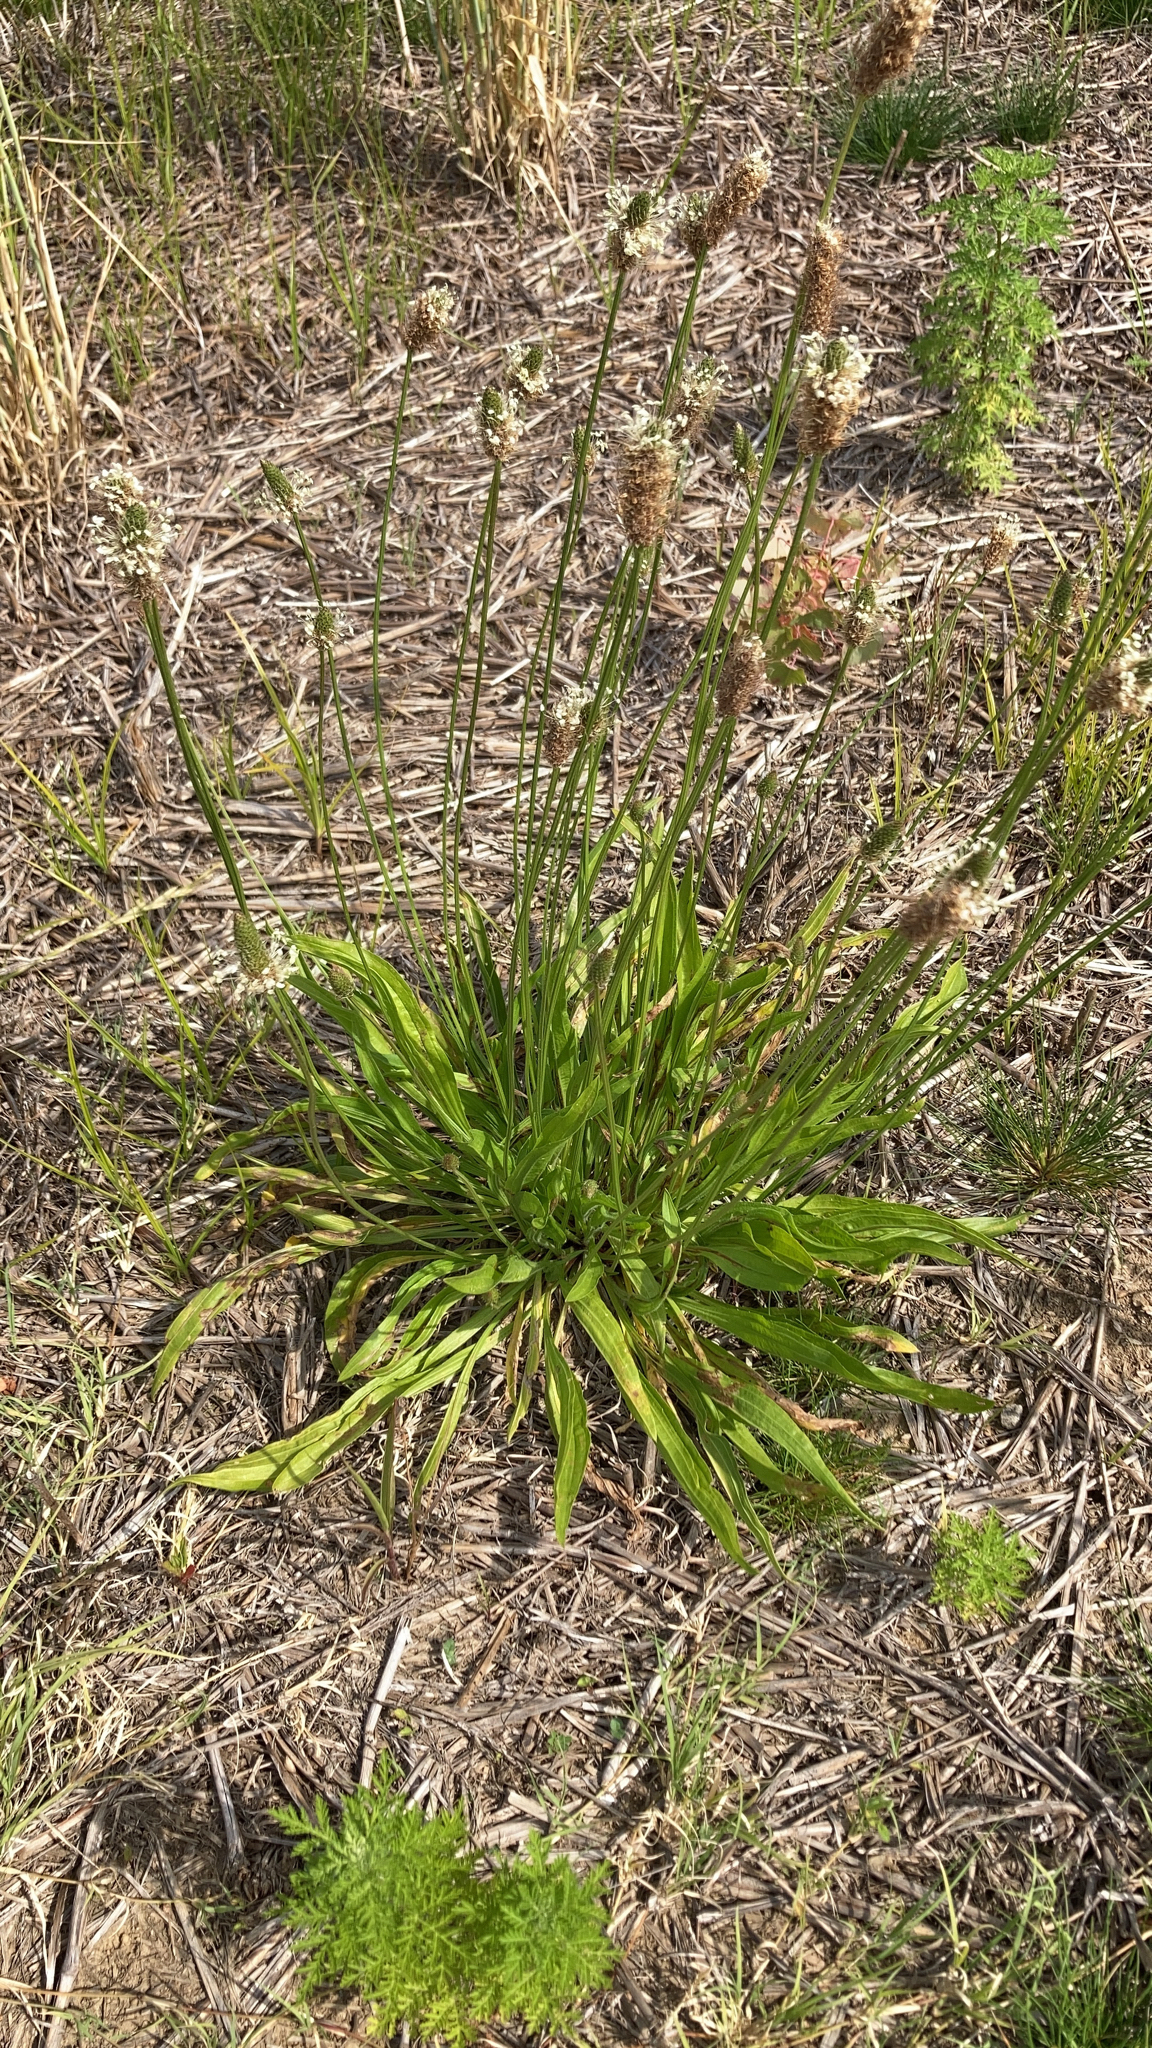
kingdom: Plantae
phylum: Tracheophyta
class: Magnoliopsida
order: Lamiales
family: Plantaginaceae
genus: Plantago
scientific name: Plantago lanceolata
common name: Ribwort plantain
